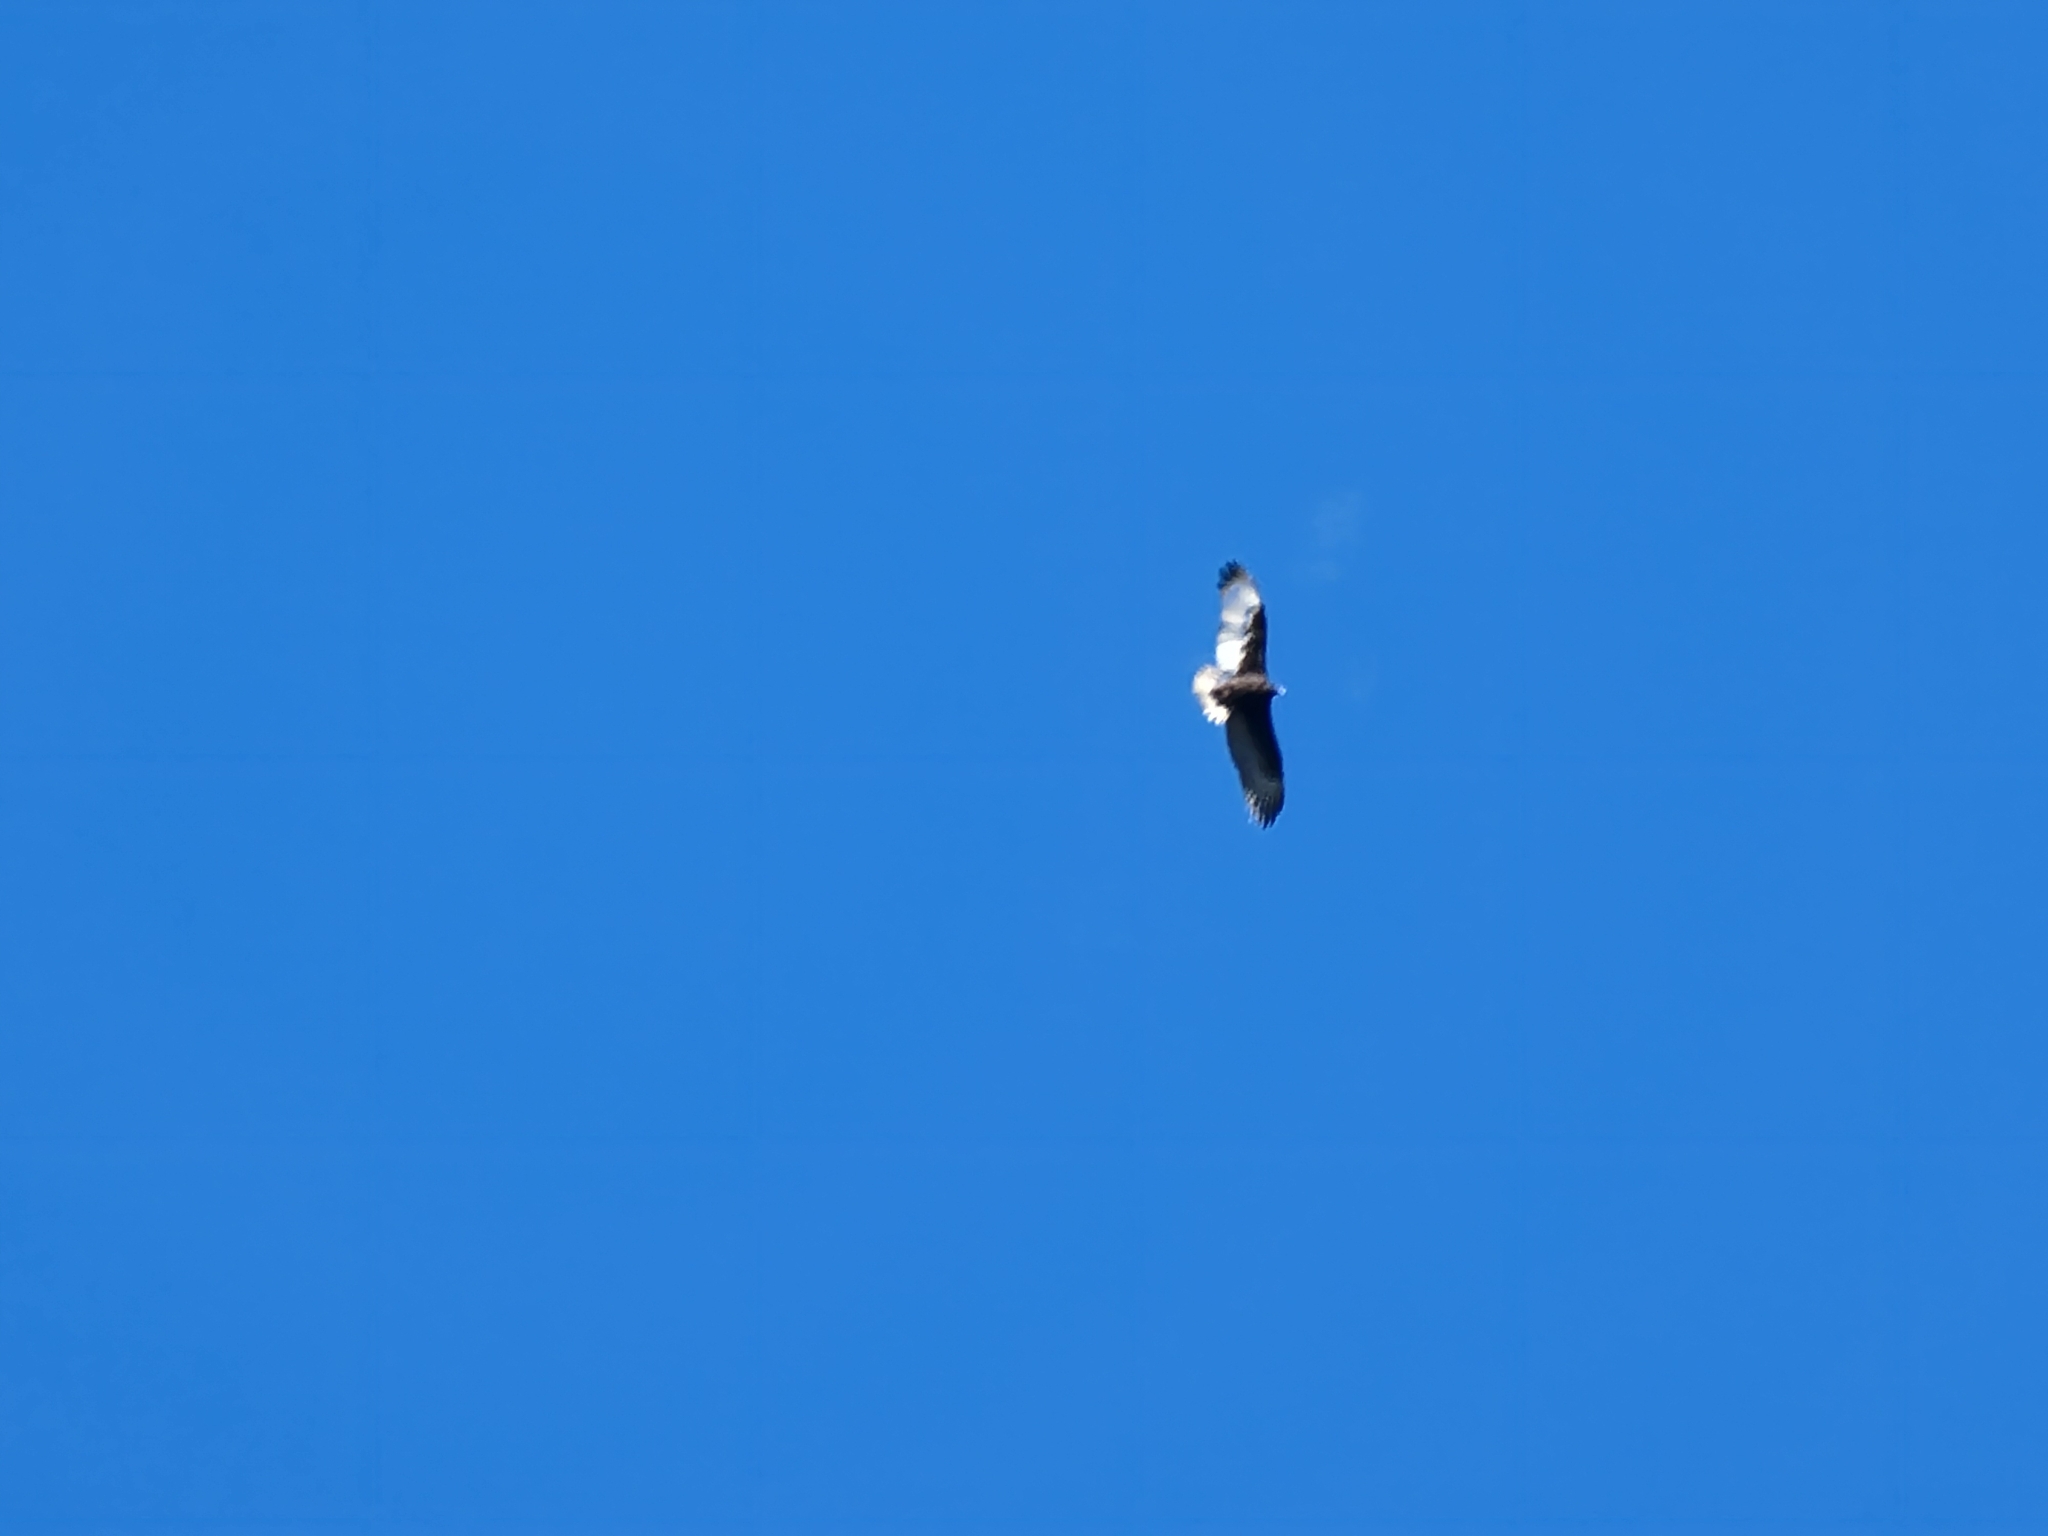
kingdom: Animalia
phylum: Chordata
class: Aves
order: Accipitriformes
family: Cathartidae
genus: Cathartes
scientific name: Cathartes aura
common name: Turkey vulture
